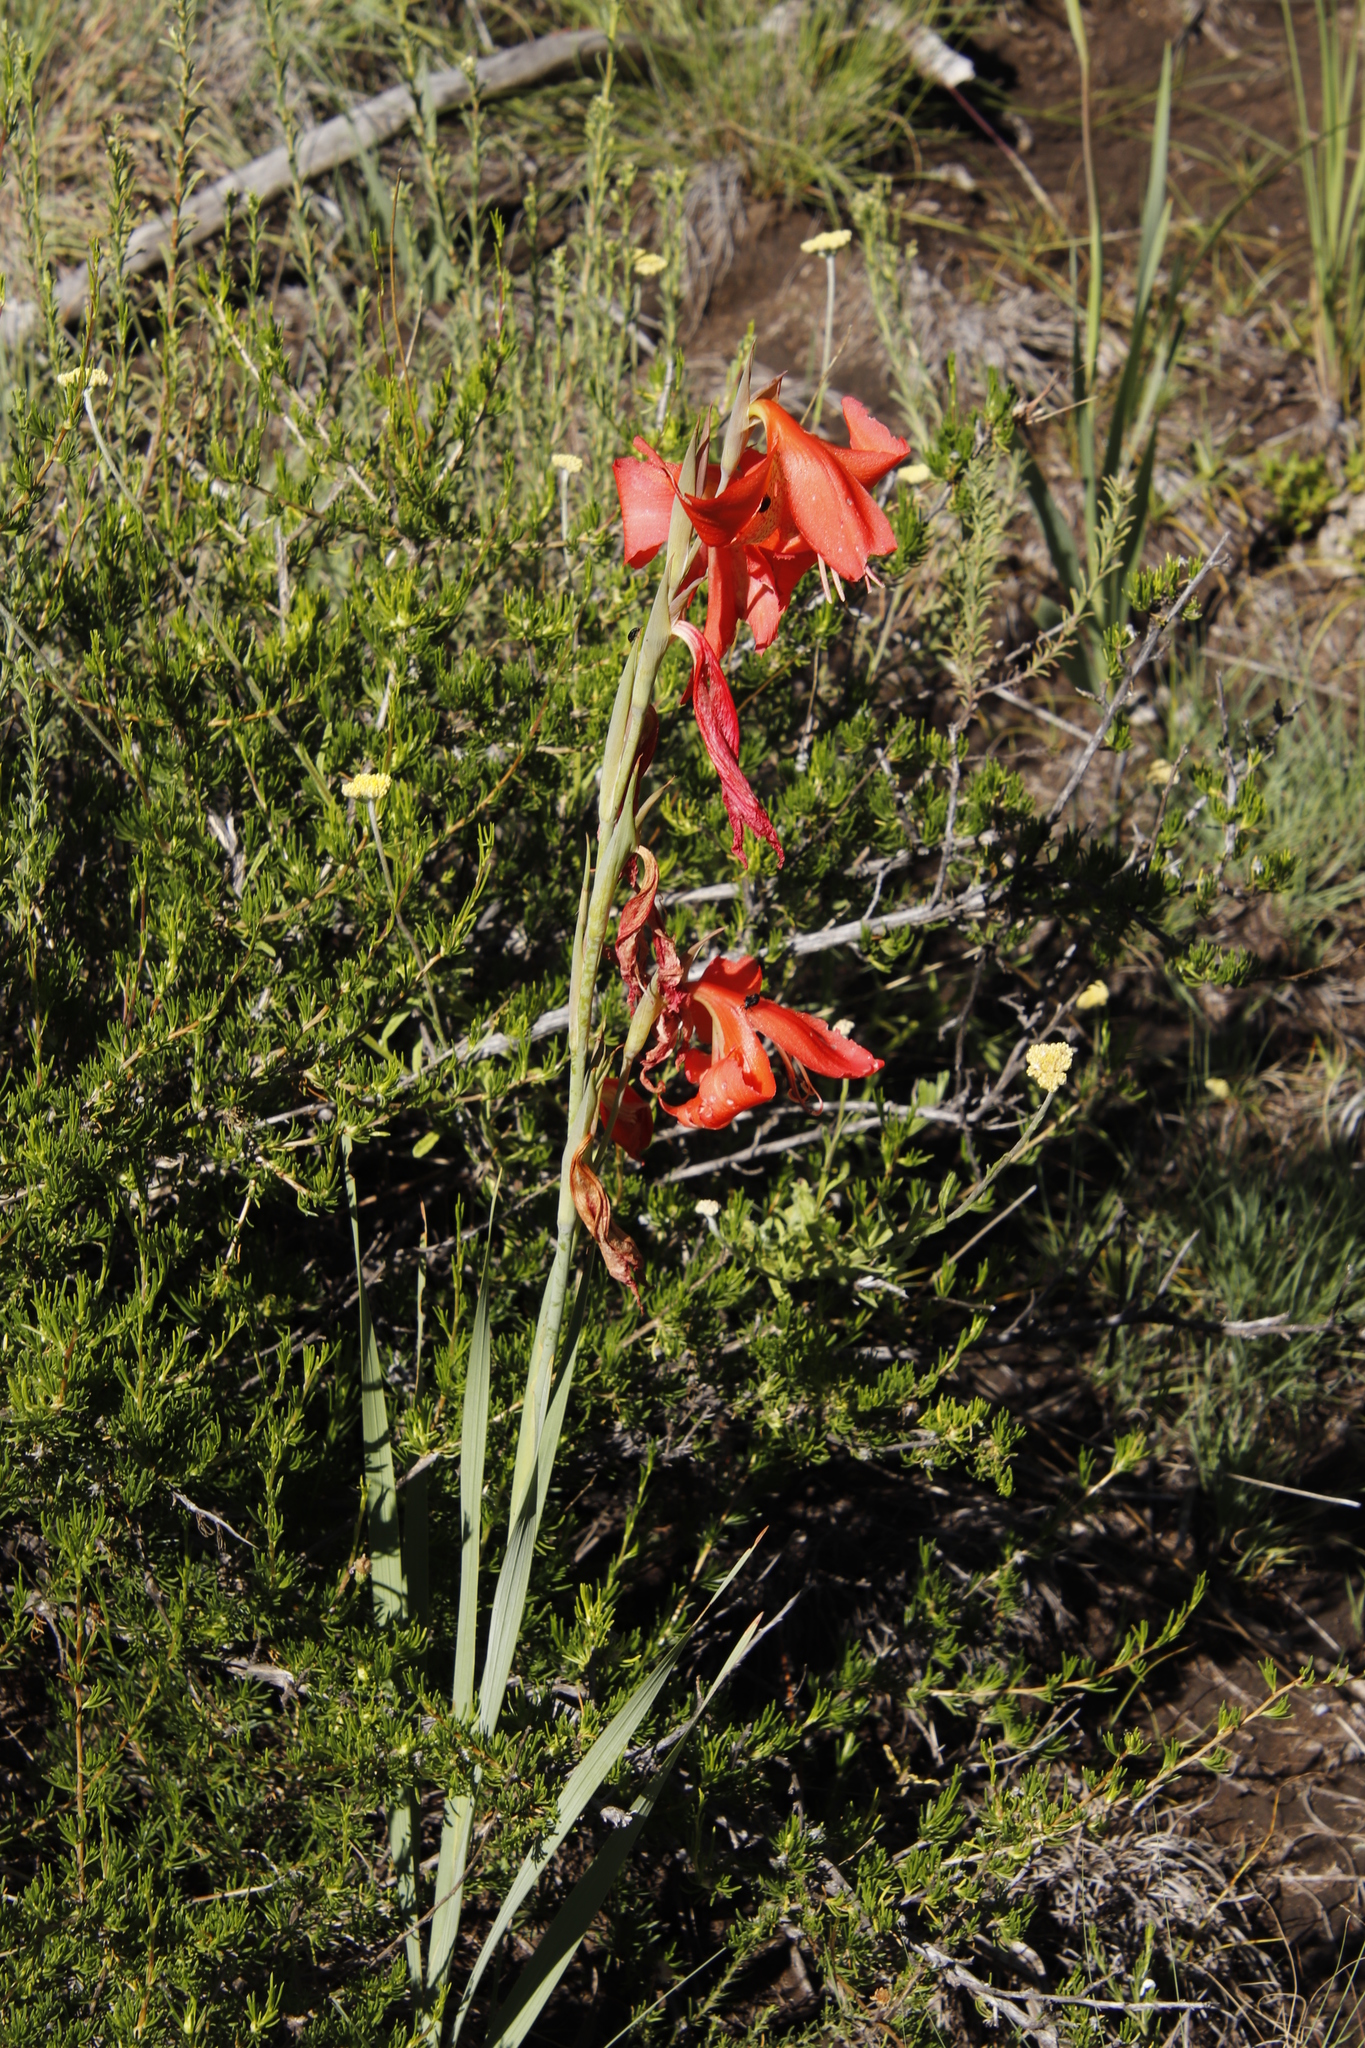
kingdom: Plantae
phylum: Tracheophyta
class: Liliopsida
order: Asparagales
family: Iridaceae
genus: Gladiolus
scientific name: Gladiolus saundersii
